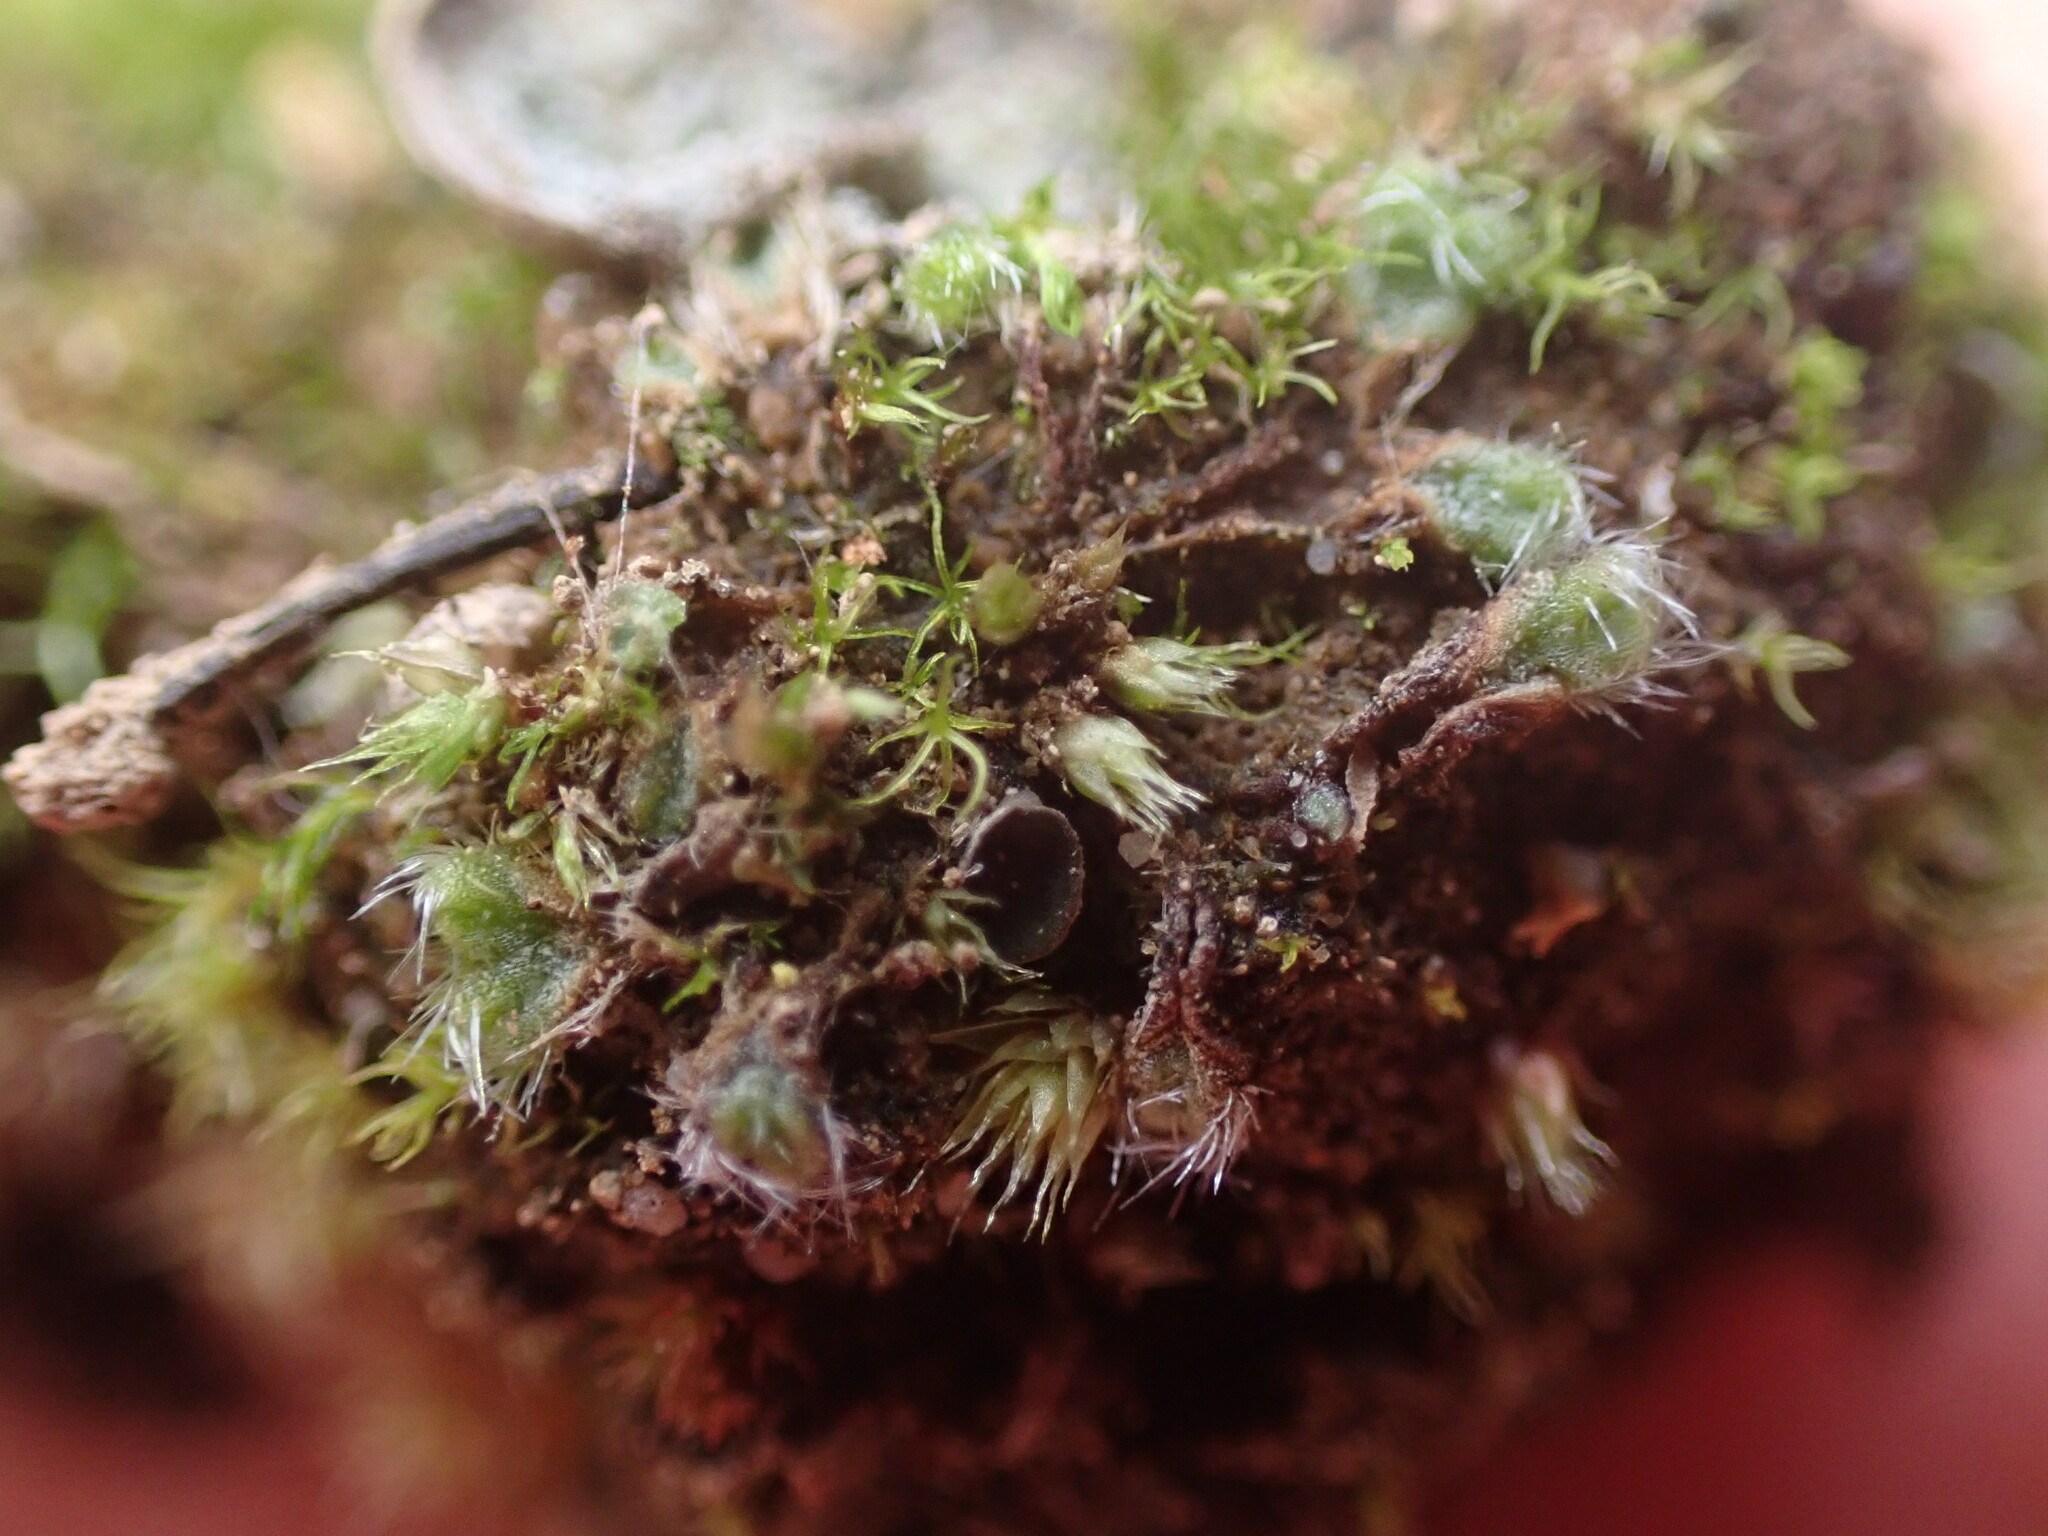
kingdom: Plantae
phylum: Marchantiophyta
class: Marchantiopsida
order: Marchantiales
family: Ricciaceae
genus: Riccia
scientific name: Riccia trichocarpa
